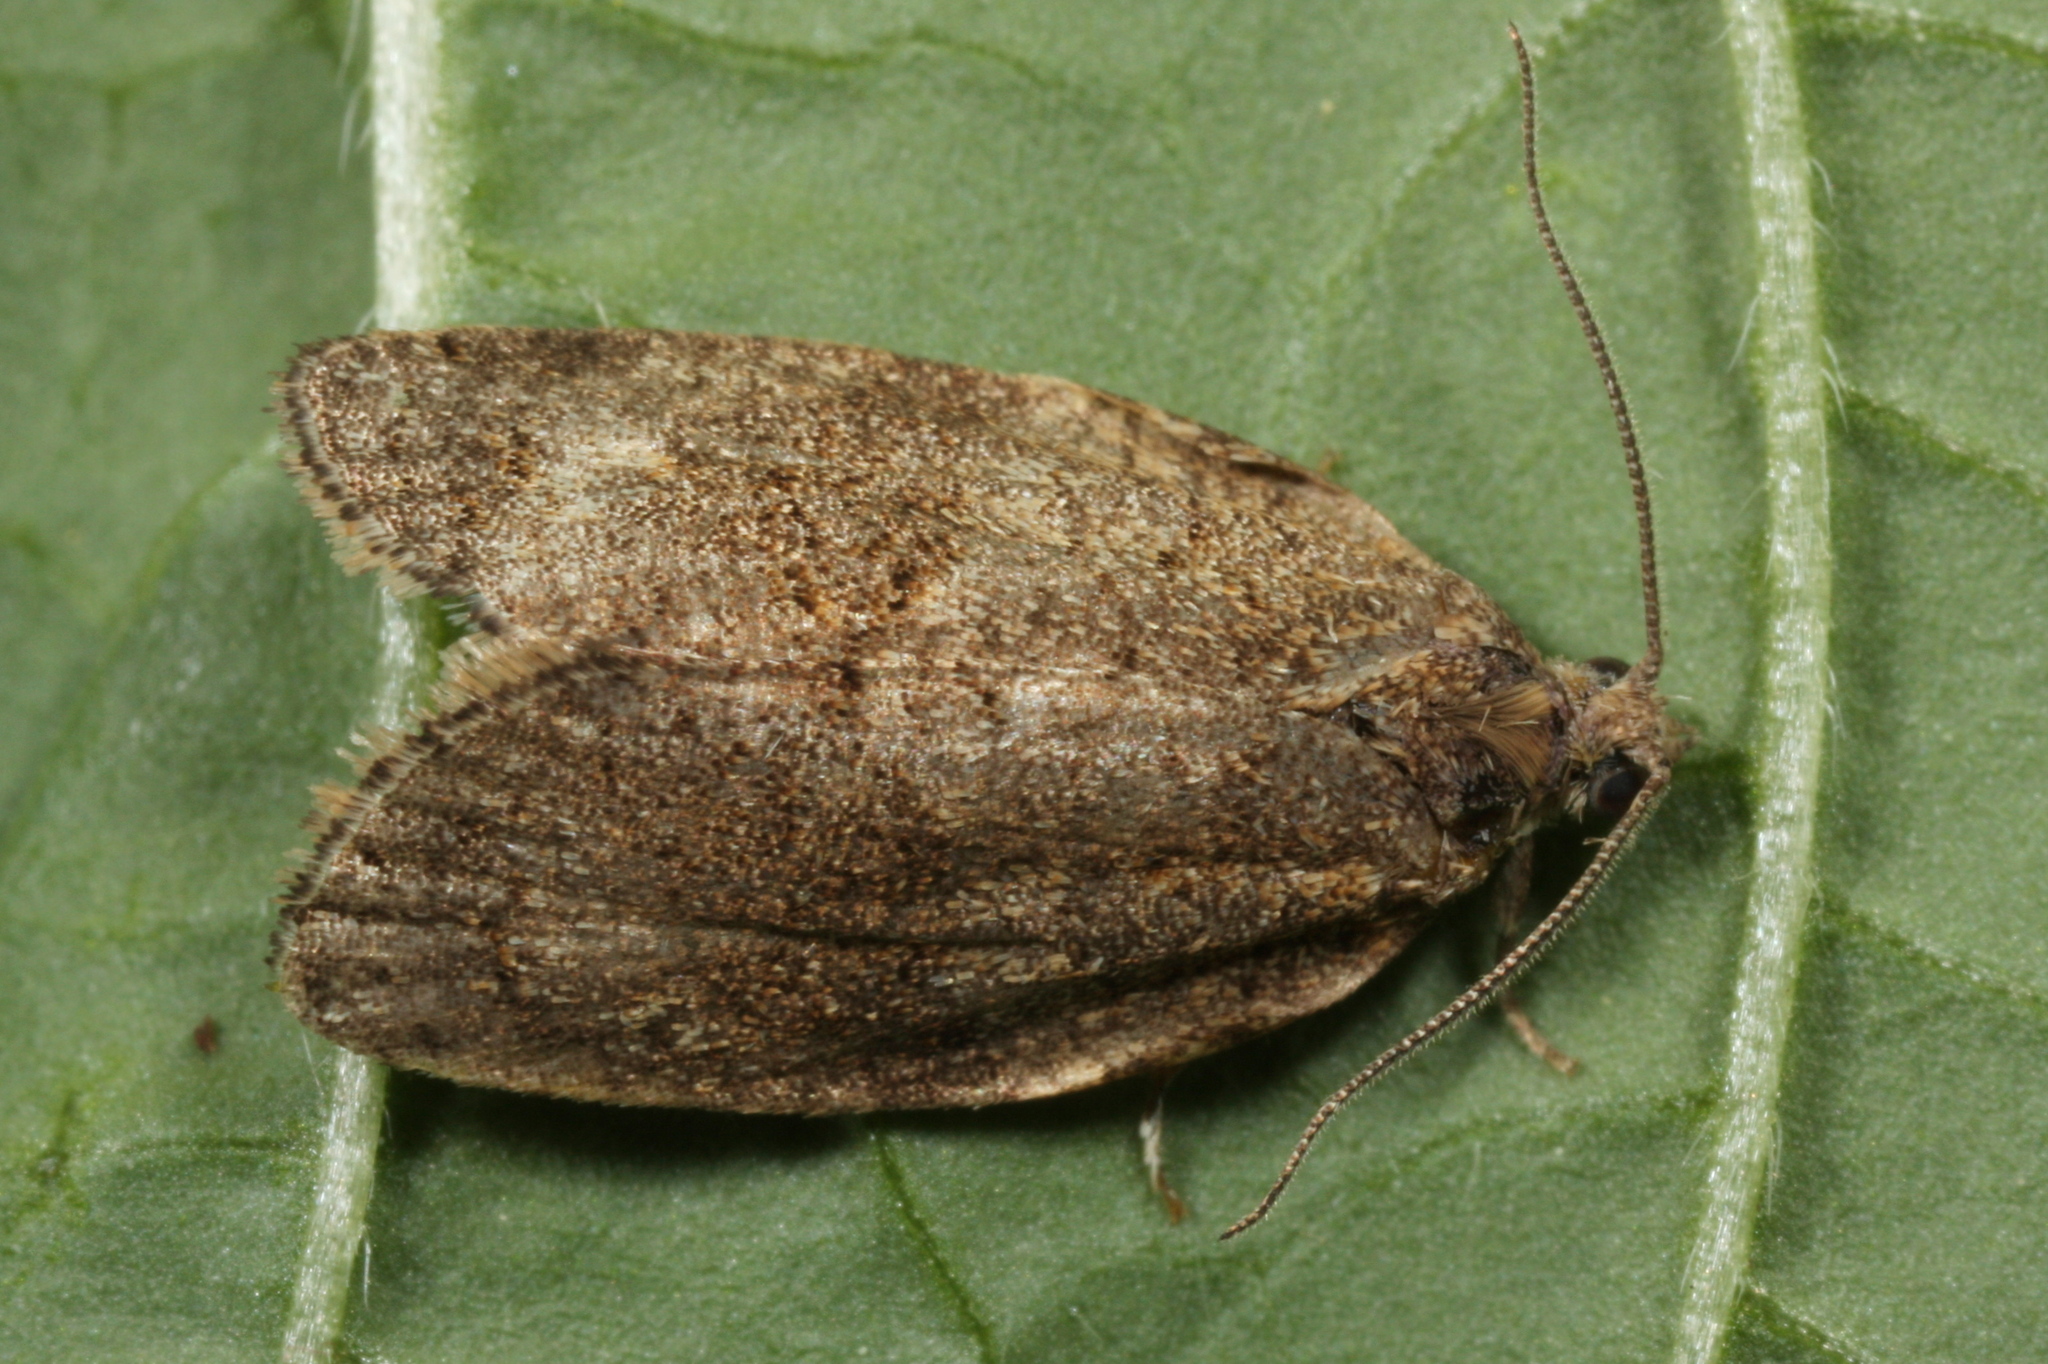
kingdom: Animalia
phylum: Arthropoda
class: Insecta
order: Lepidoptera
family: Tortricidae
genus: Syndemis
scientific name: Syndemis musculana
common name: Dark-barred twist
